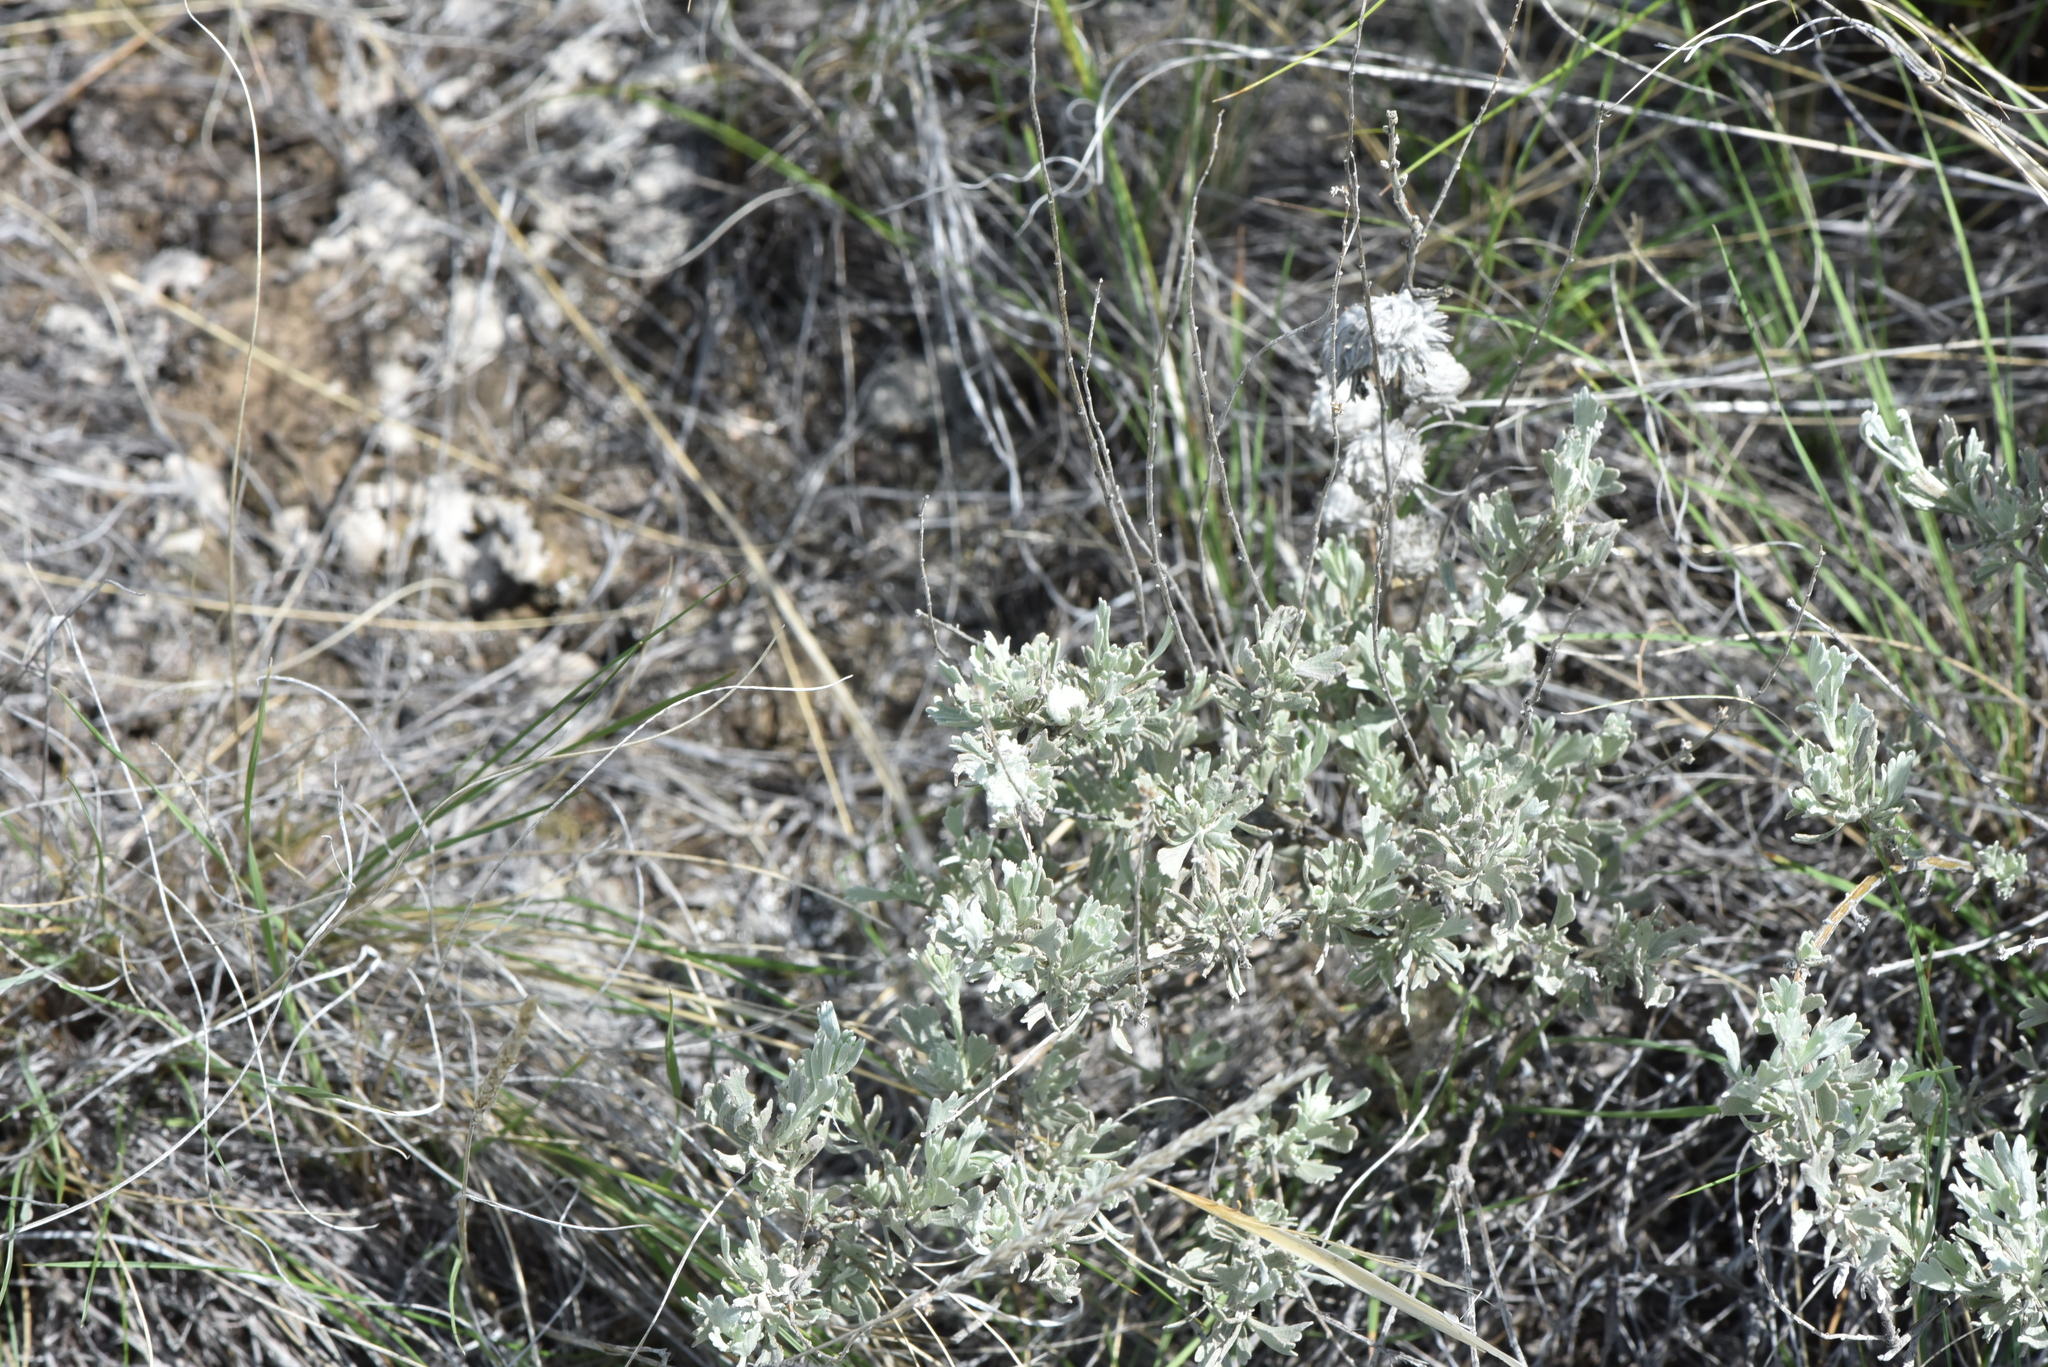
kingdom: Plantae
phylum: Tracheophyta
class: Magnoliopsida
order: Asterales
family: Asteraceae
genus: Artemisia
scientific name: Artemisia tridentata
